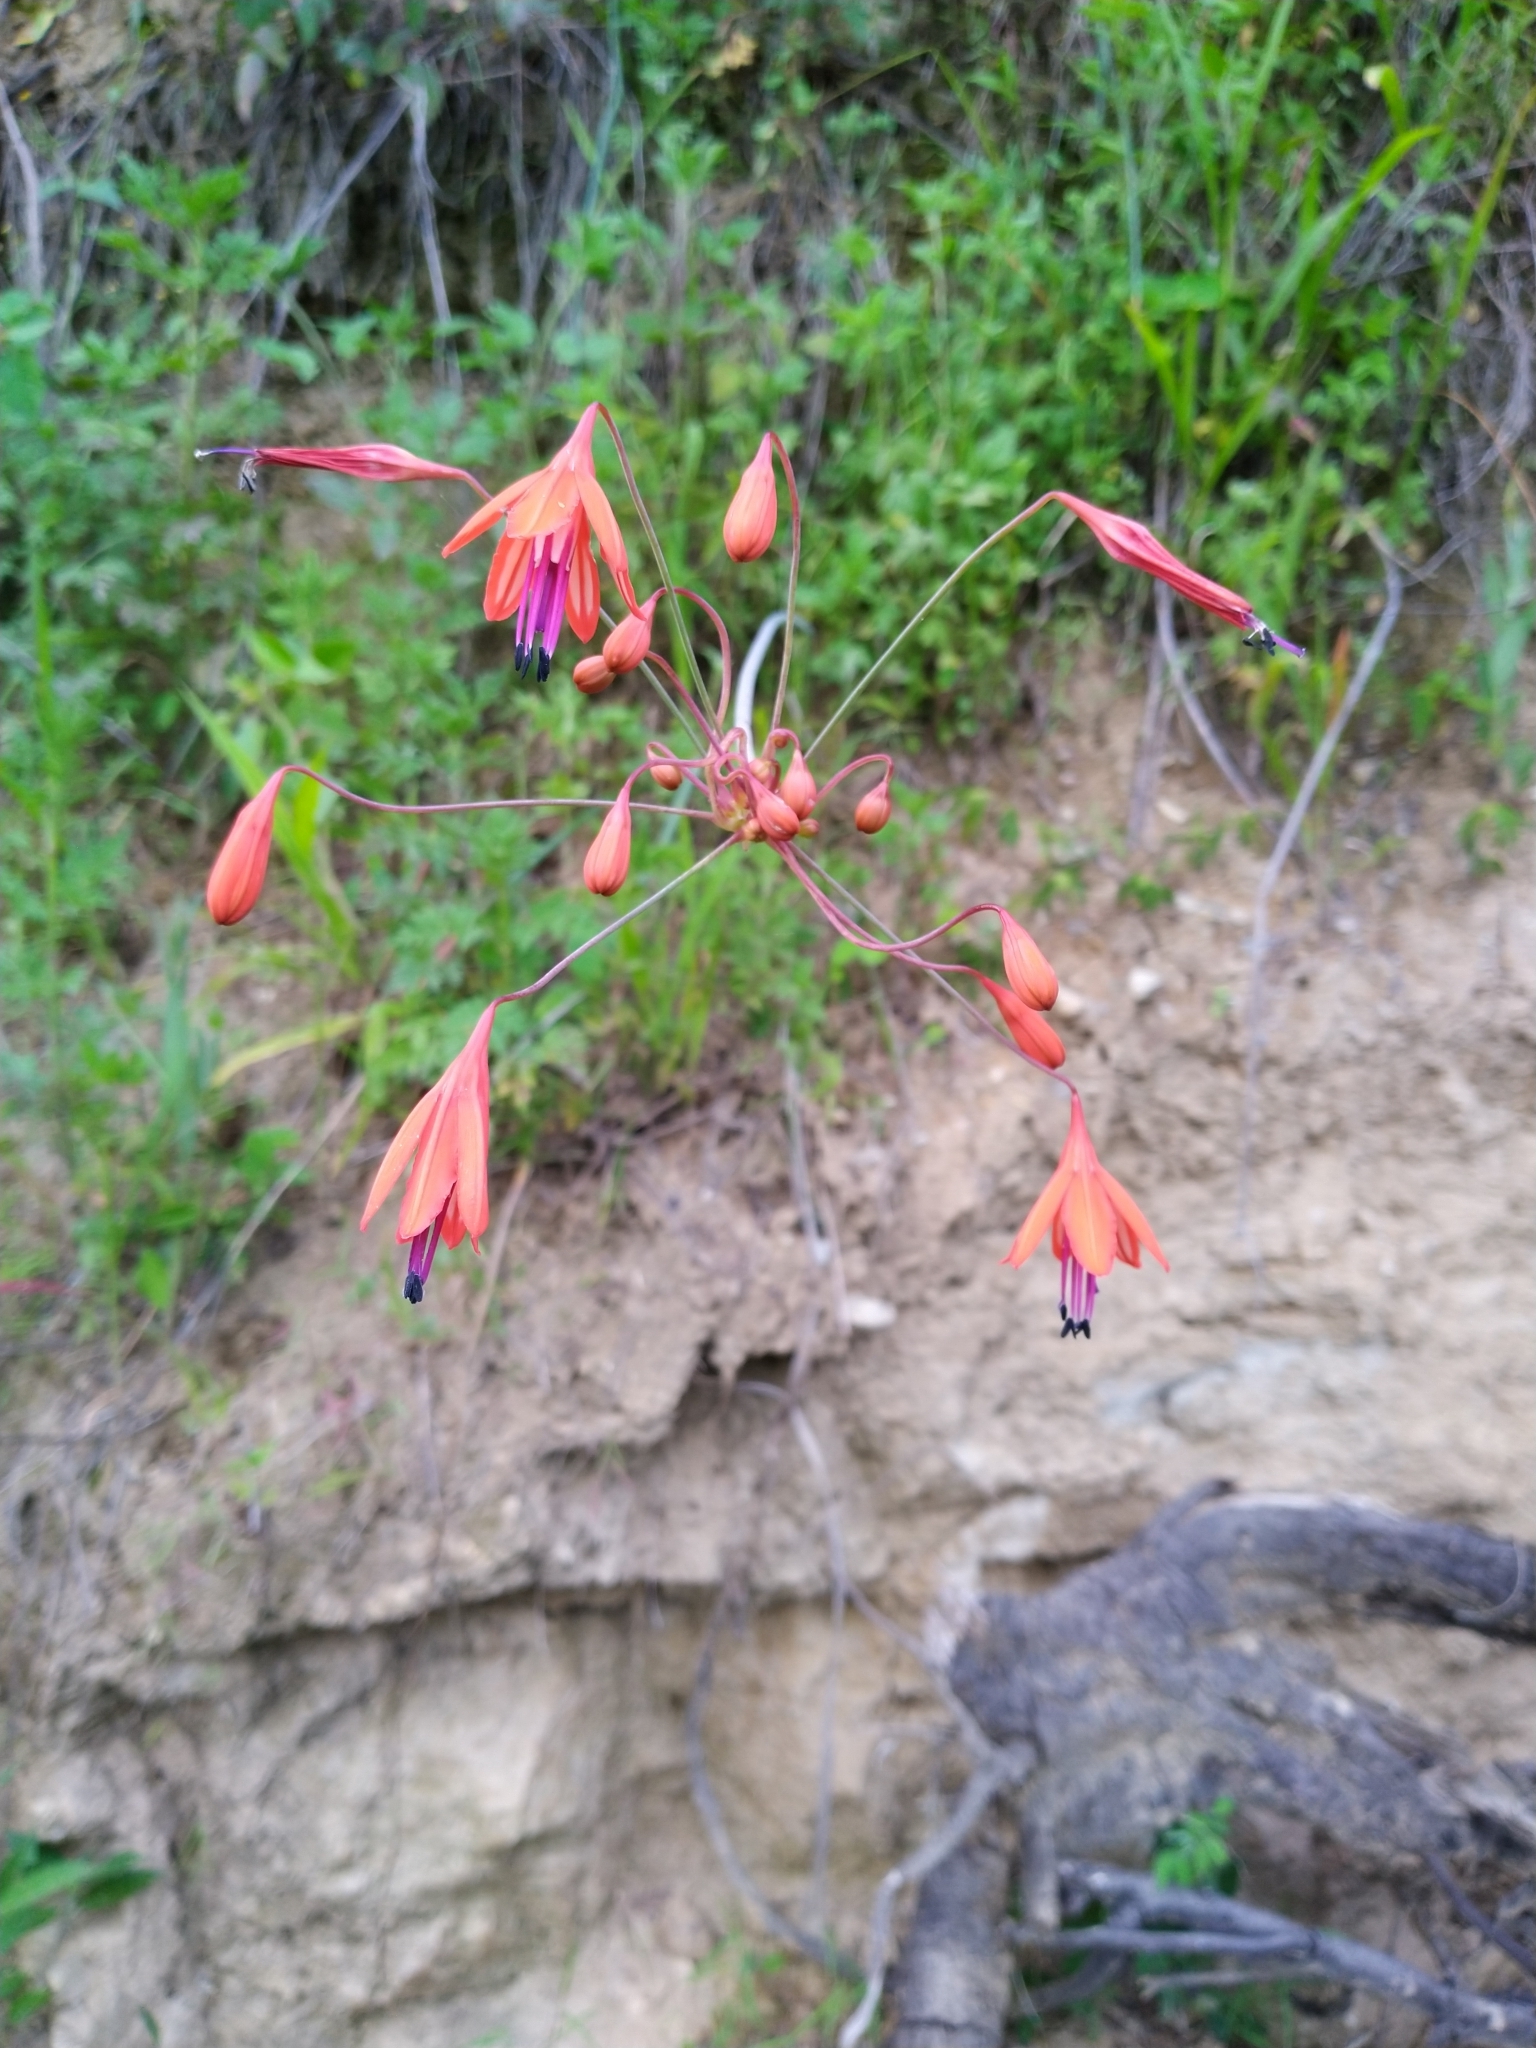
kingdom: Plantae
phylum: Tracheophyta
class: Liliopsida
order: Asparagales
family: Asparagaceae
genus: Bessera
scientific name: Bessera elegans
